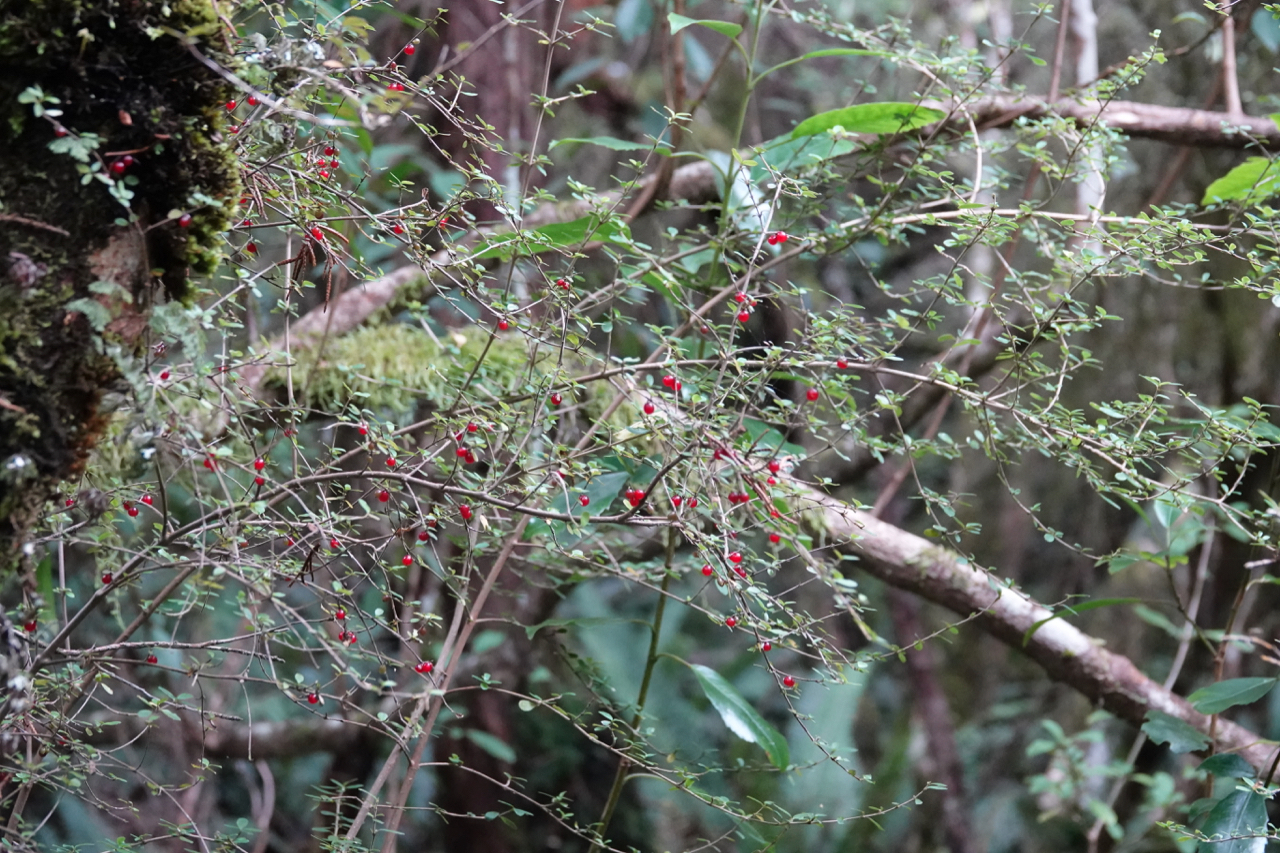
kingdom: Plantae
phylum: Tracheophyta
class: Magnoliopsida
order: Gentianales
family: Rubiaceae
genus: Coprosma
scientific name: Coprosma rhamnoides
